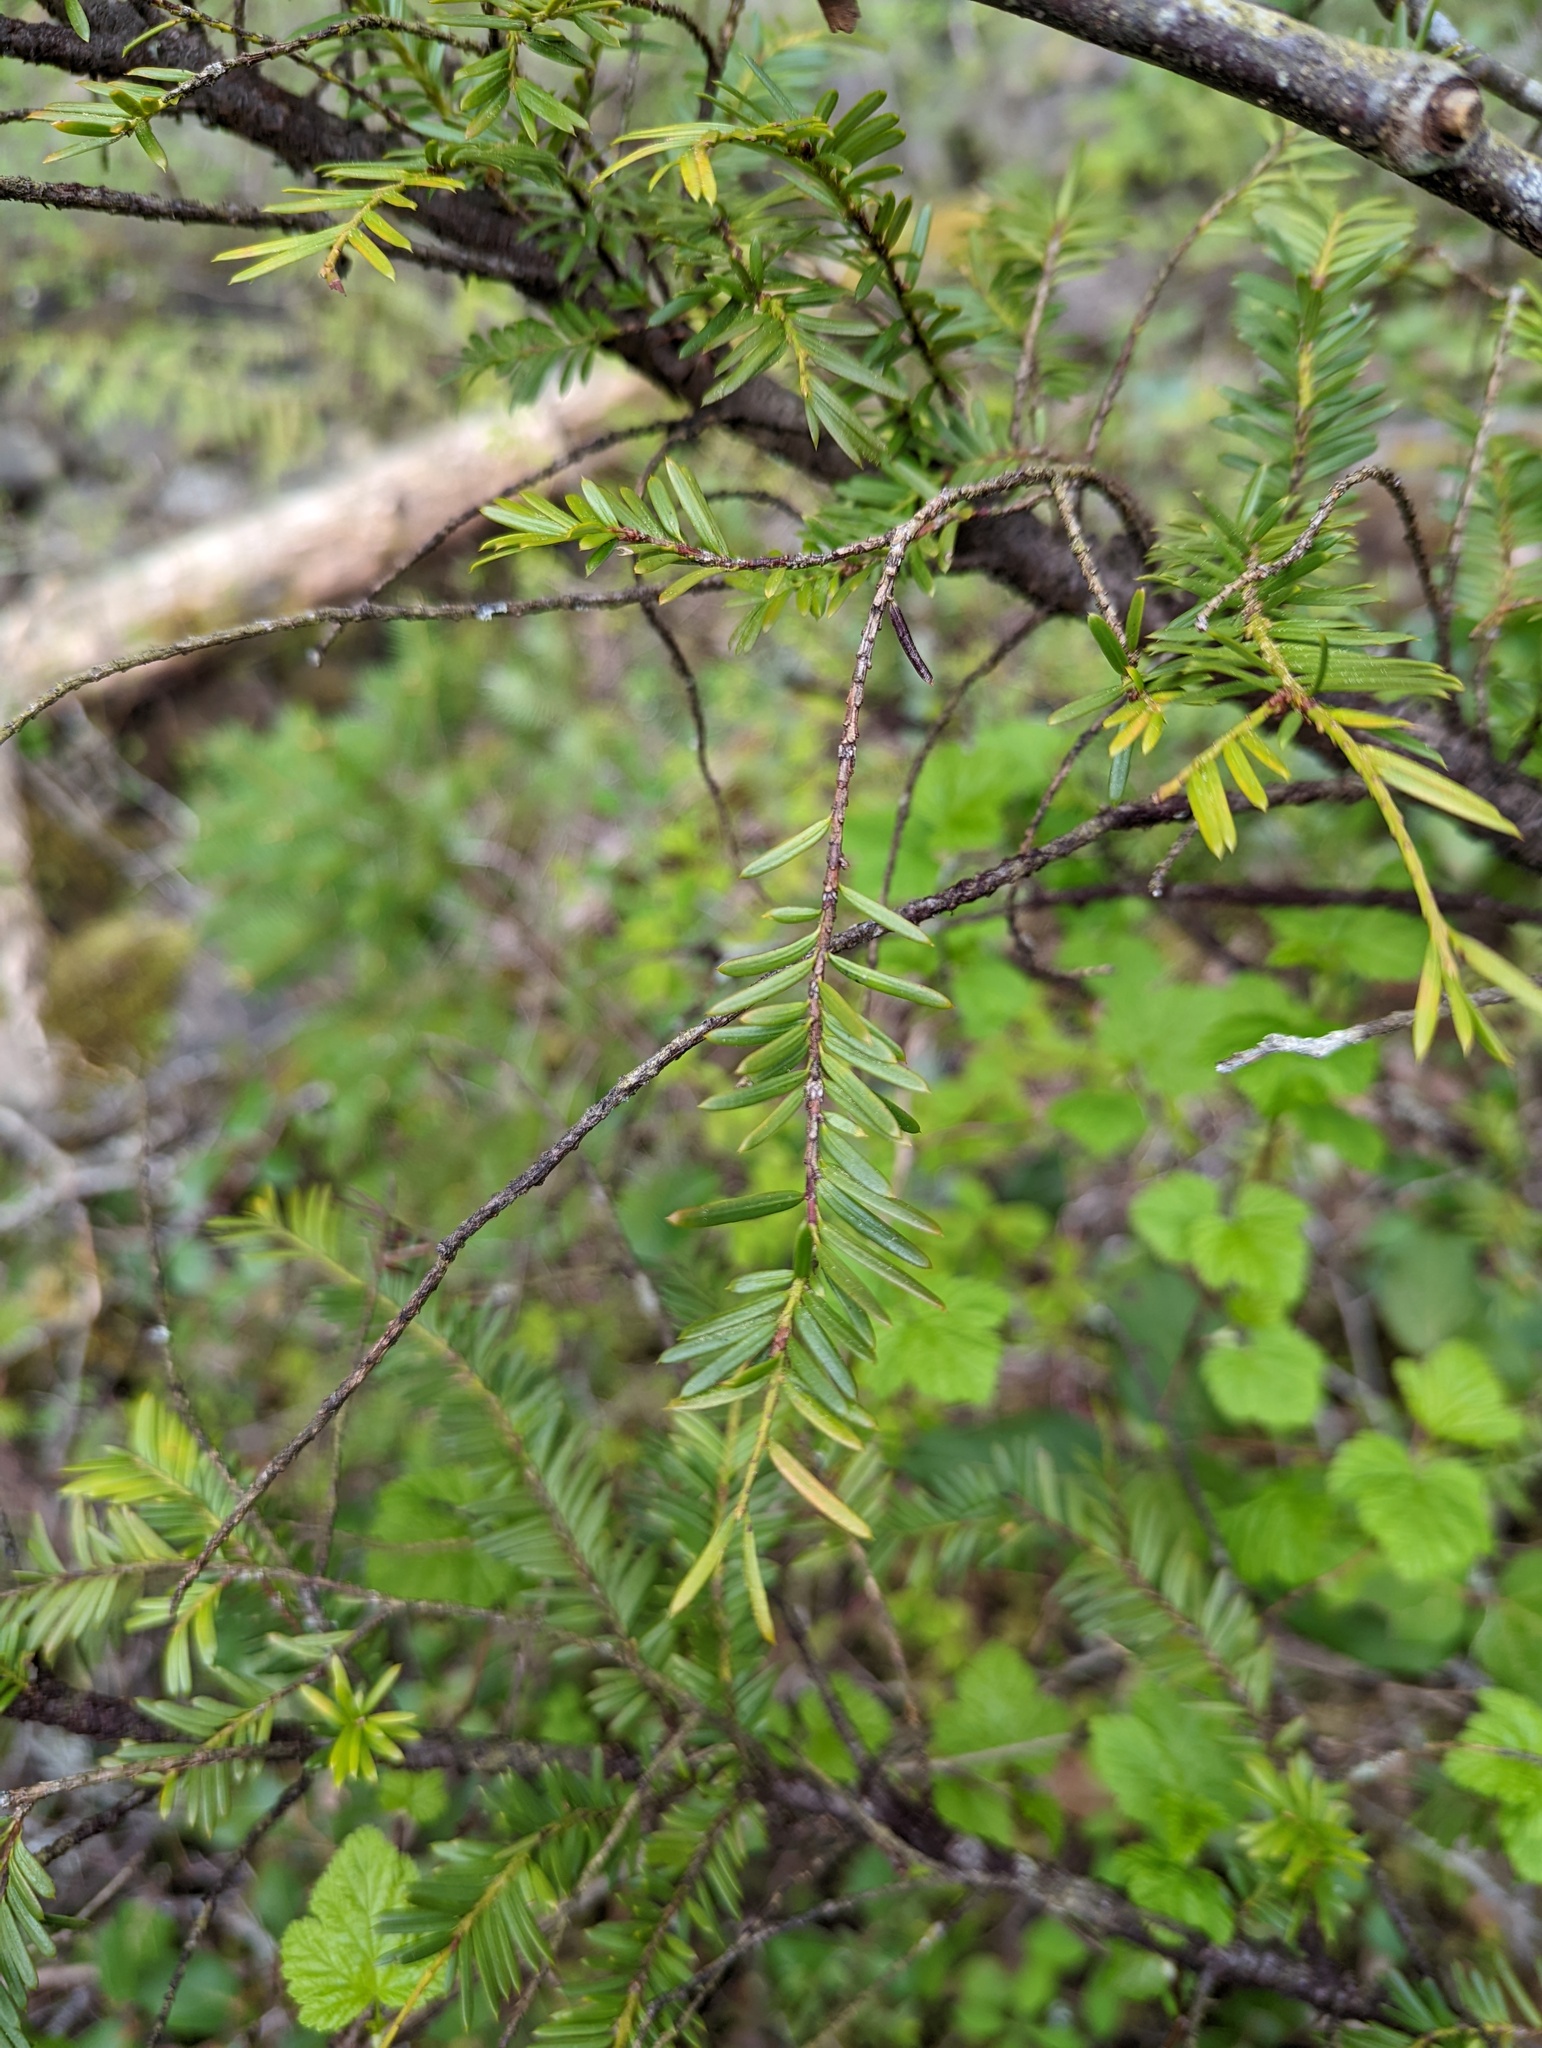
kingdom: Plantae
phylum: Tracheophyta
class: Pinopsida
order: Pinales
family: Taxaceae
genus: Taxus
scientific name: Taxus brevifolia
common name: Pacific yew
